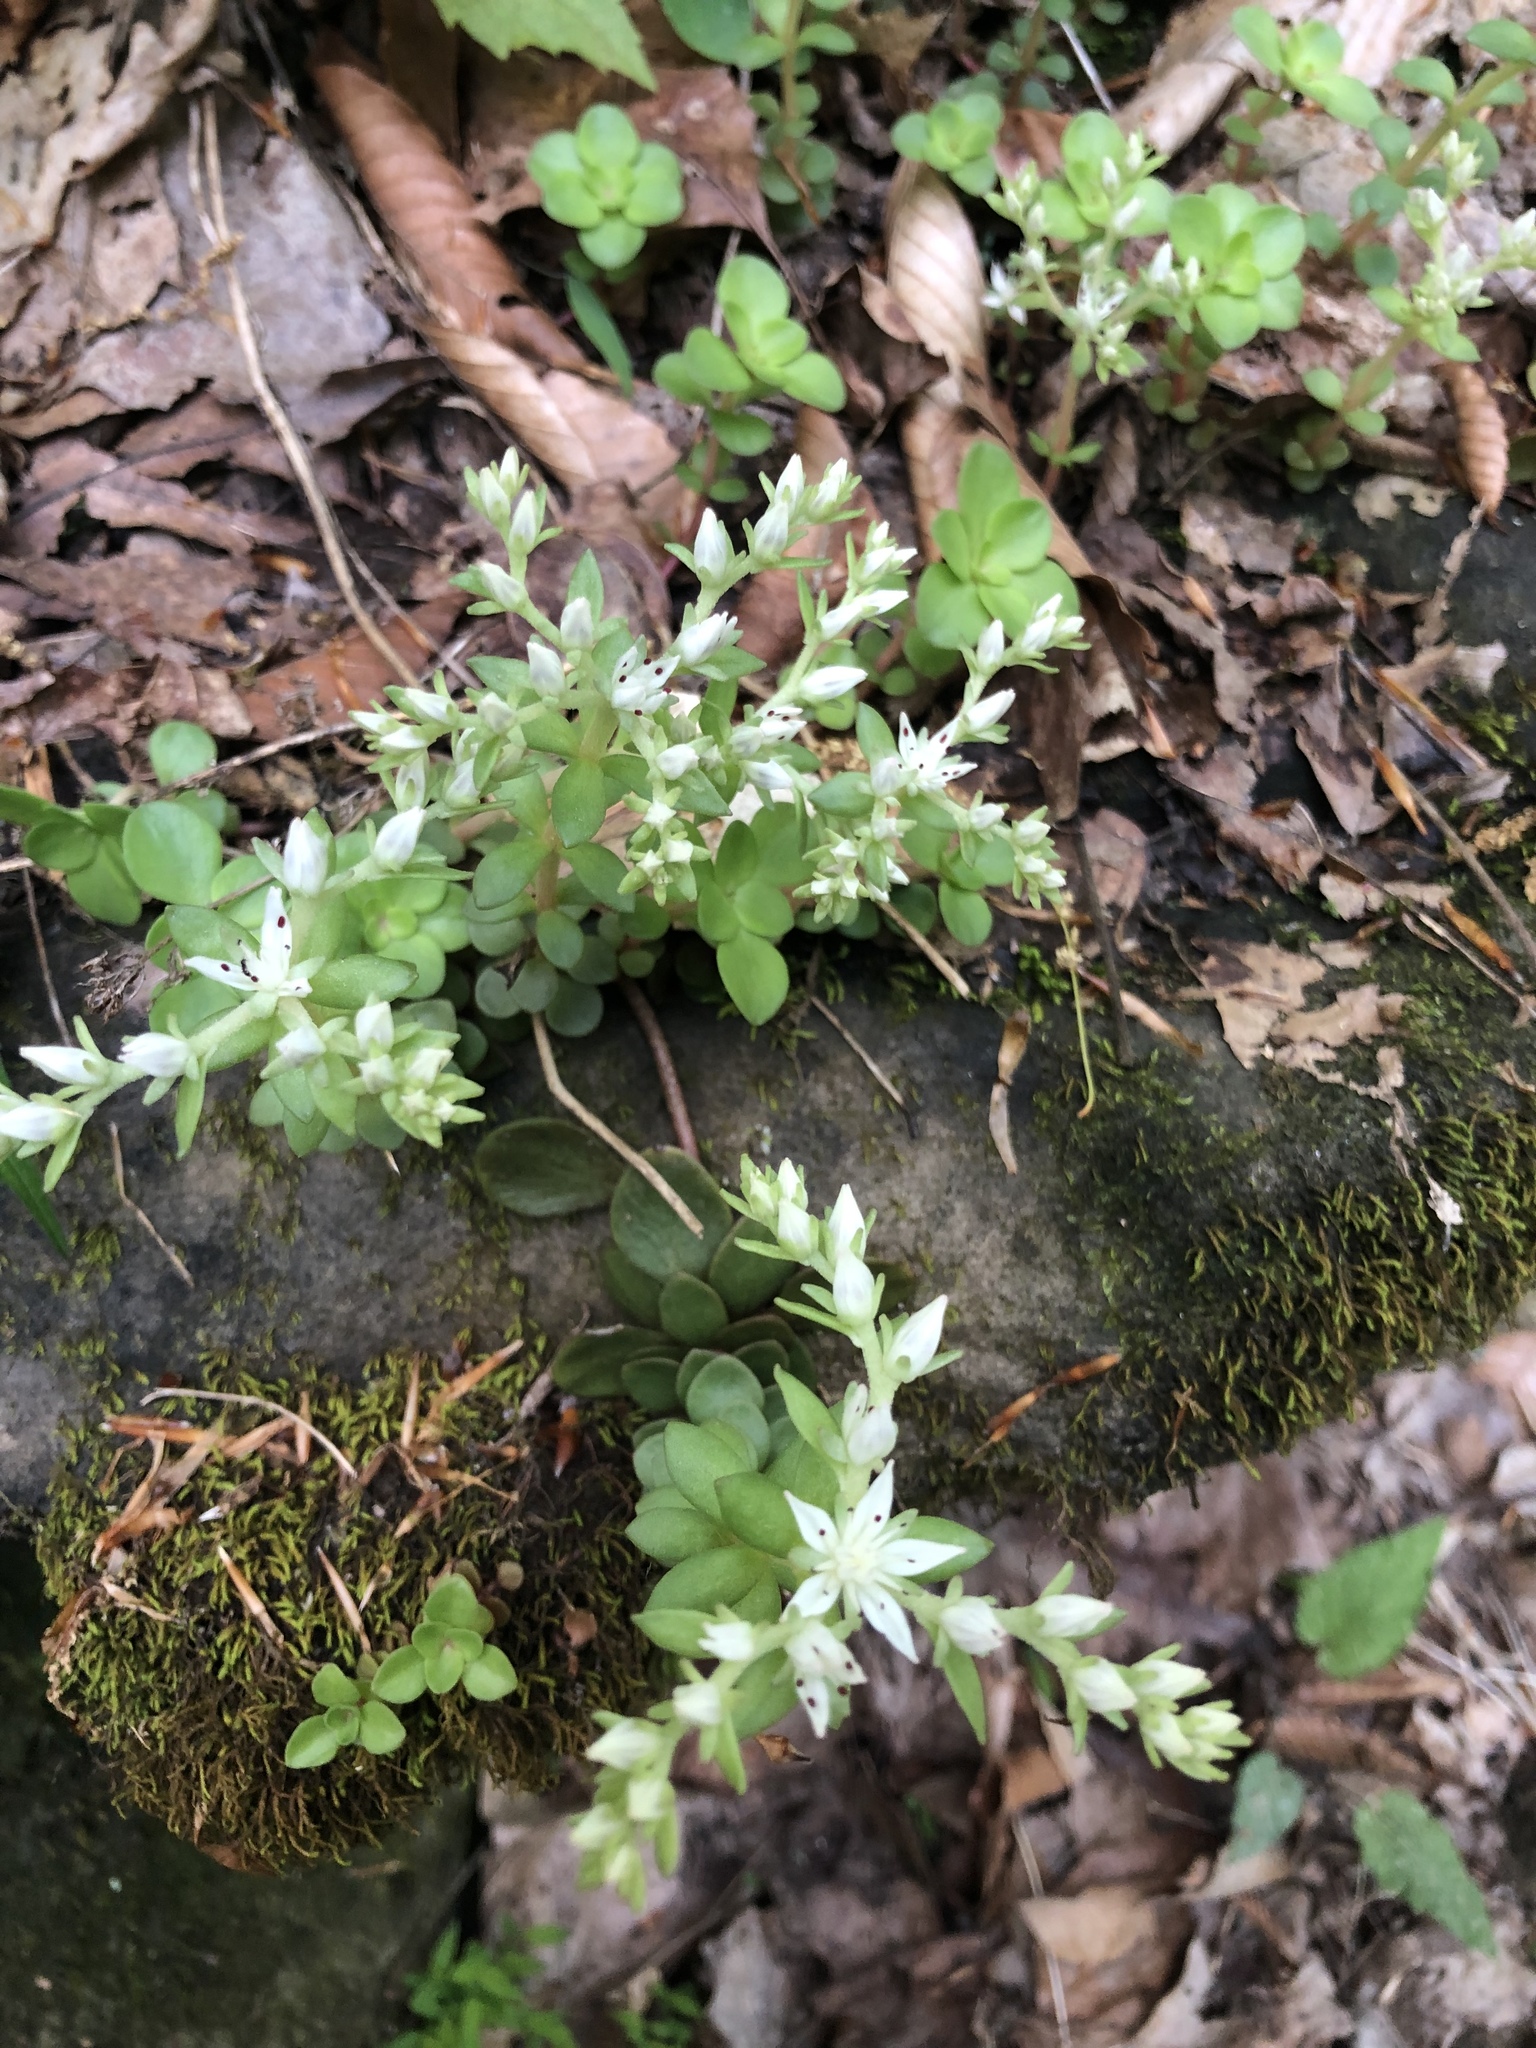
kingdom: Plantae
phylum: Tracheophyta
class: Magnoliopsida
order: Saxifragales
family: Crassulaceae
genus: Sedum
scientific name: Sedum ternatum
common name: Wild stonecrop
